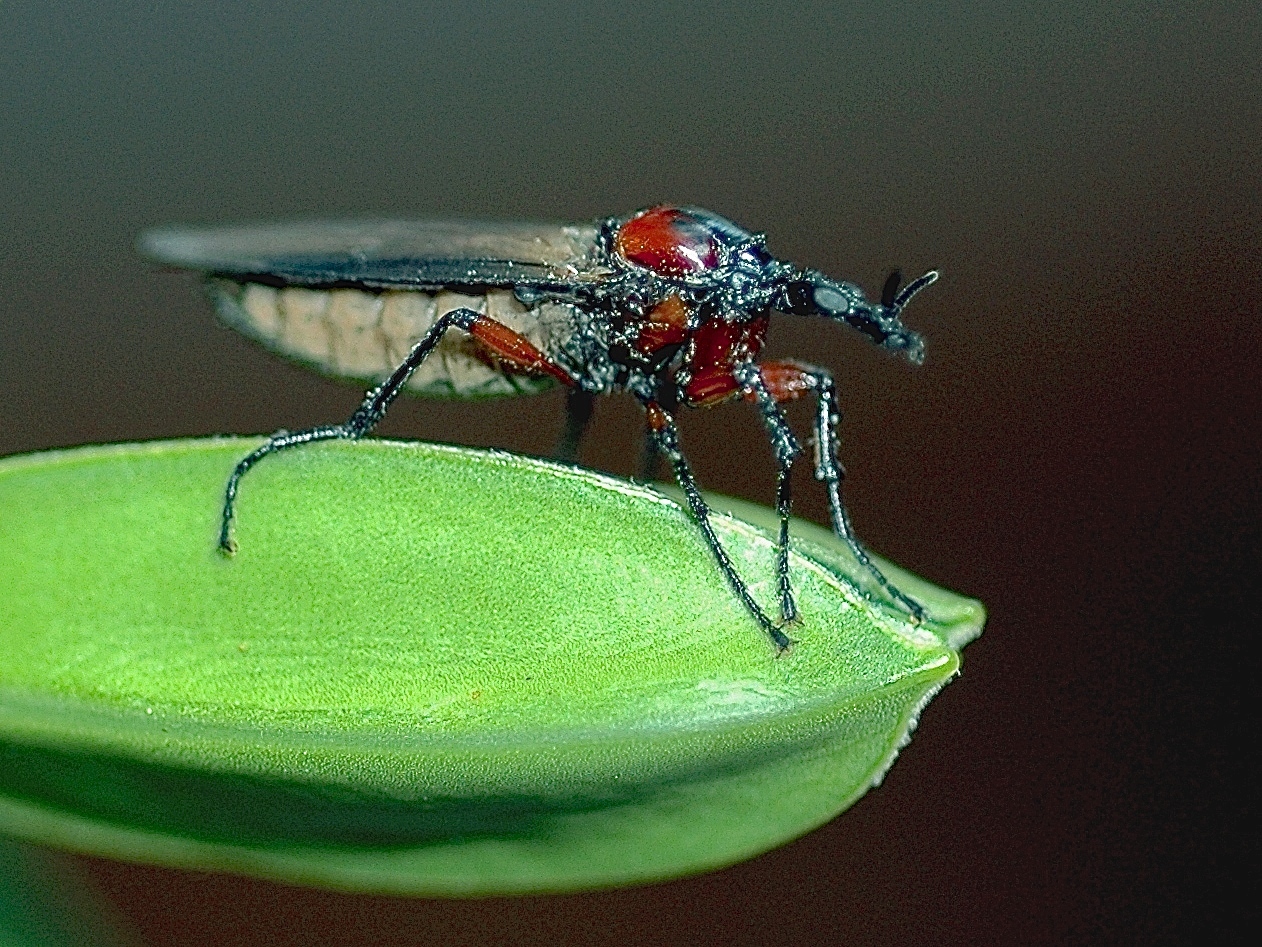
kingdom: Animalia
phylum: Arthropoda
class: Insecta
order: Diptera
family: Bibionidae
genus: Dilophus
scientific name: Dilophus nigrostigma
